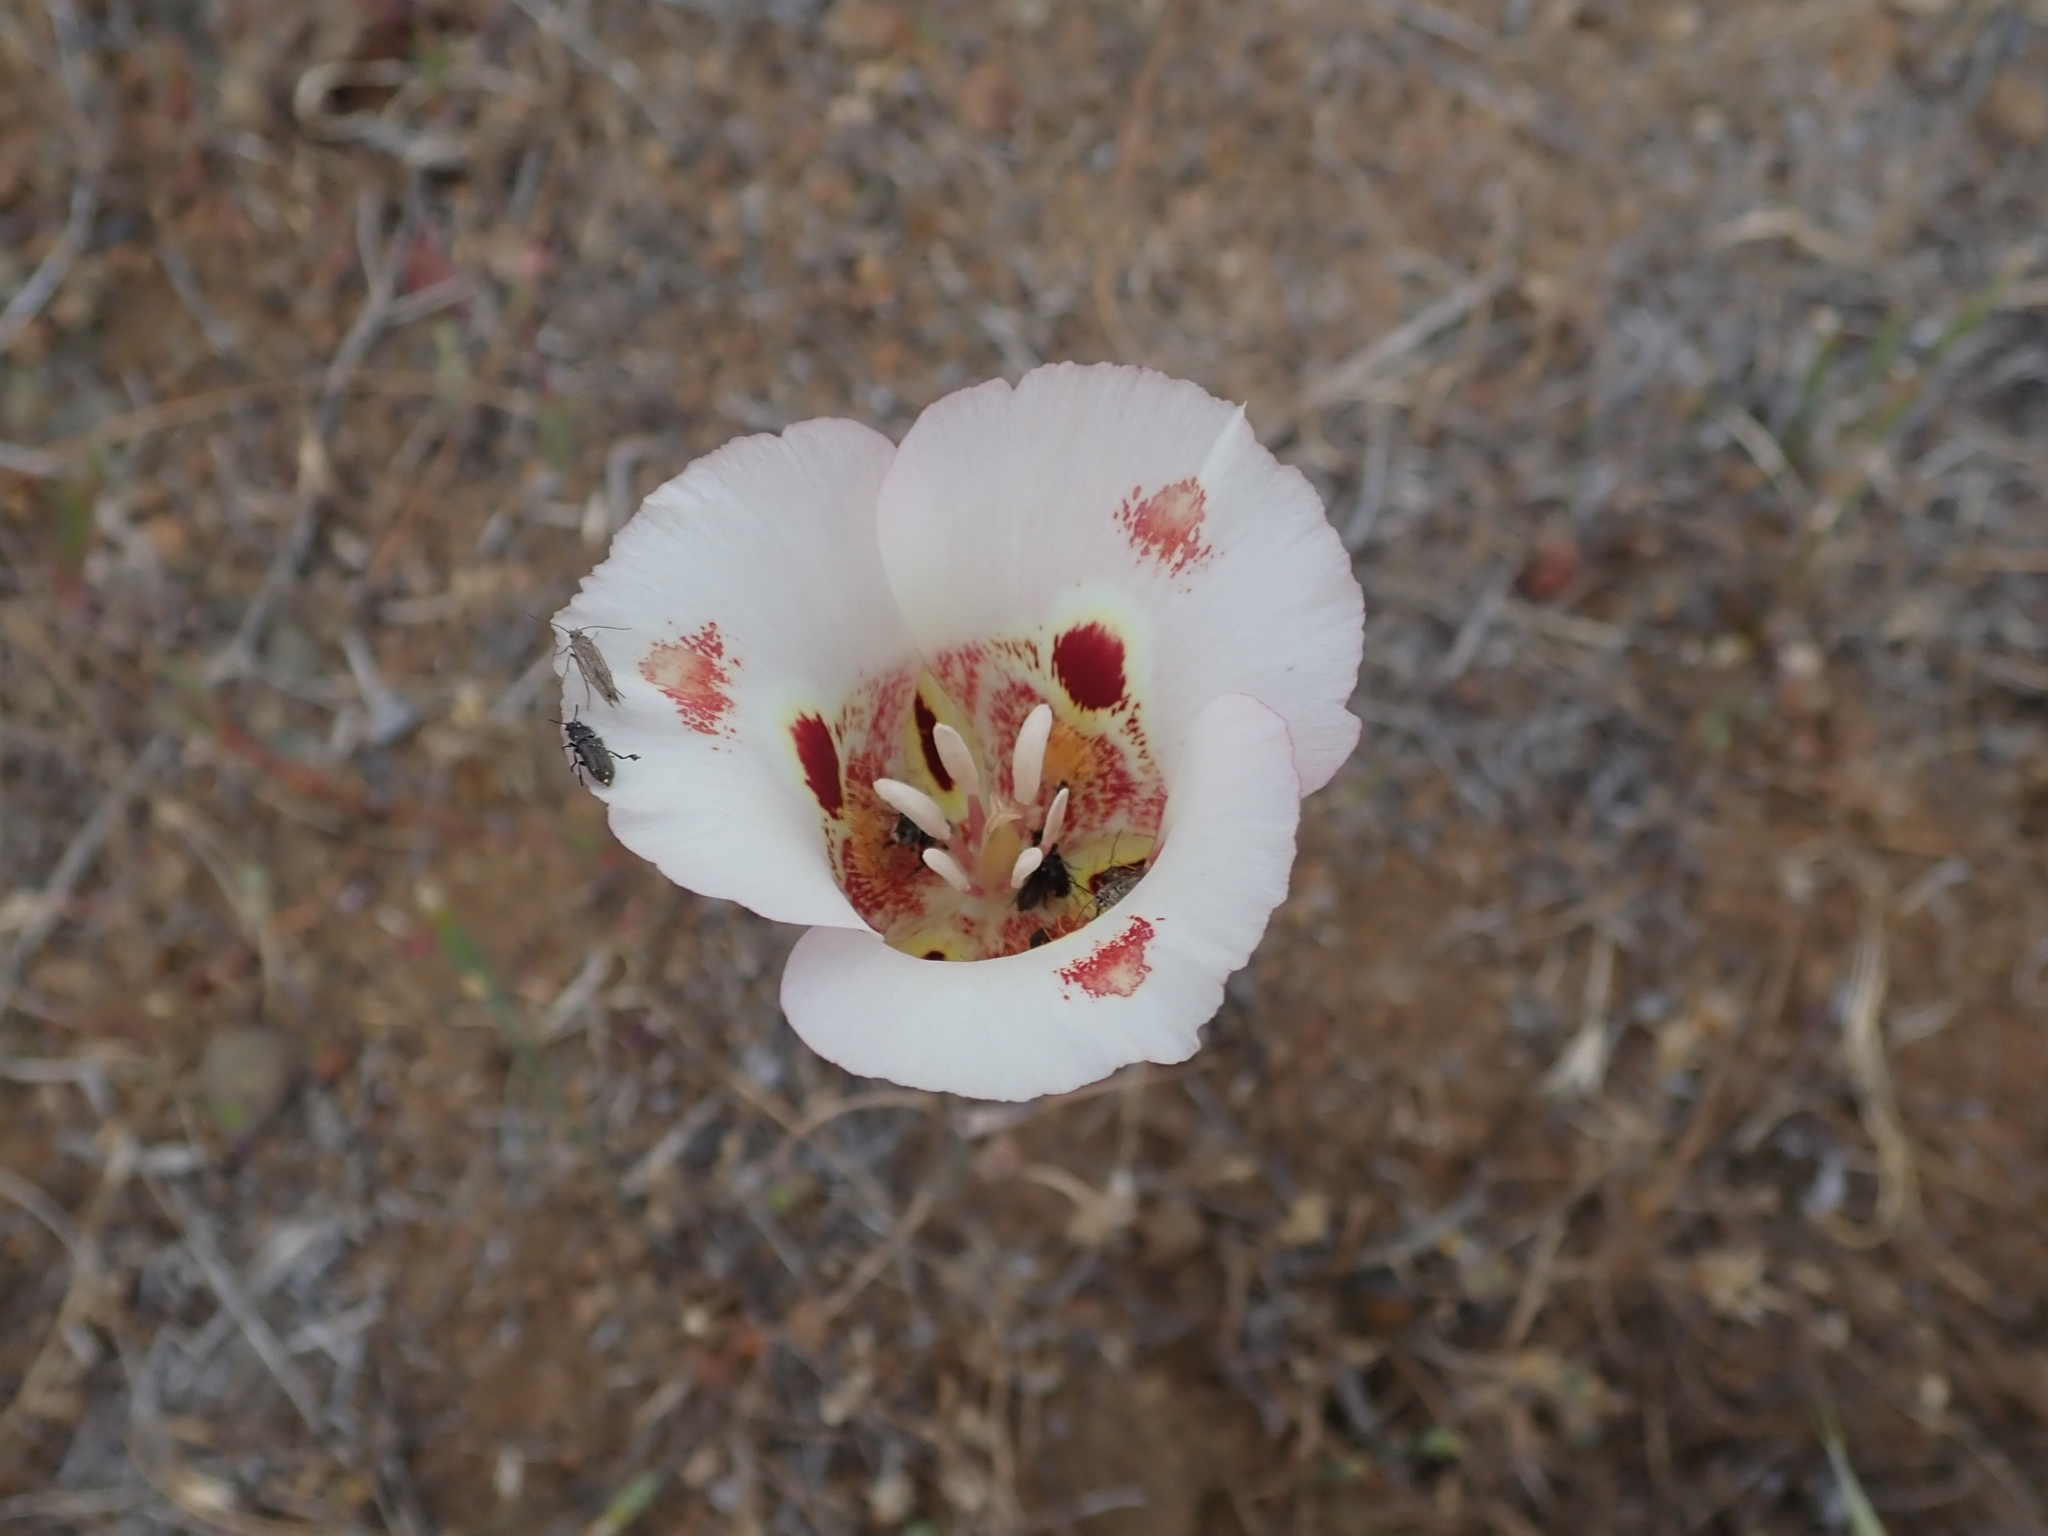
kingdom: Plantae
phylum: Tracheophyta
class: Liliopsida
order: Liliales
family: Liliaceae
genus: Calochortus
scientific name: Calochortus venustus
